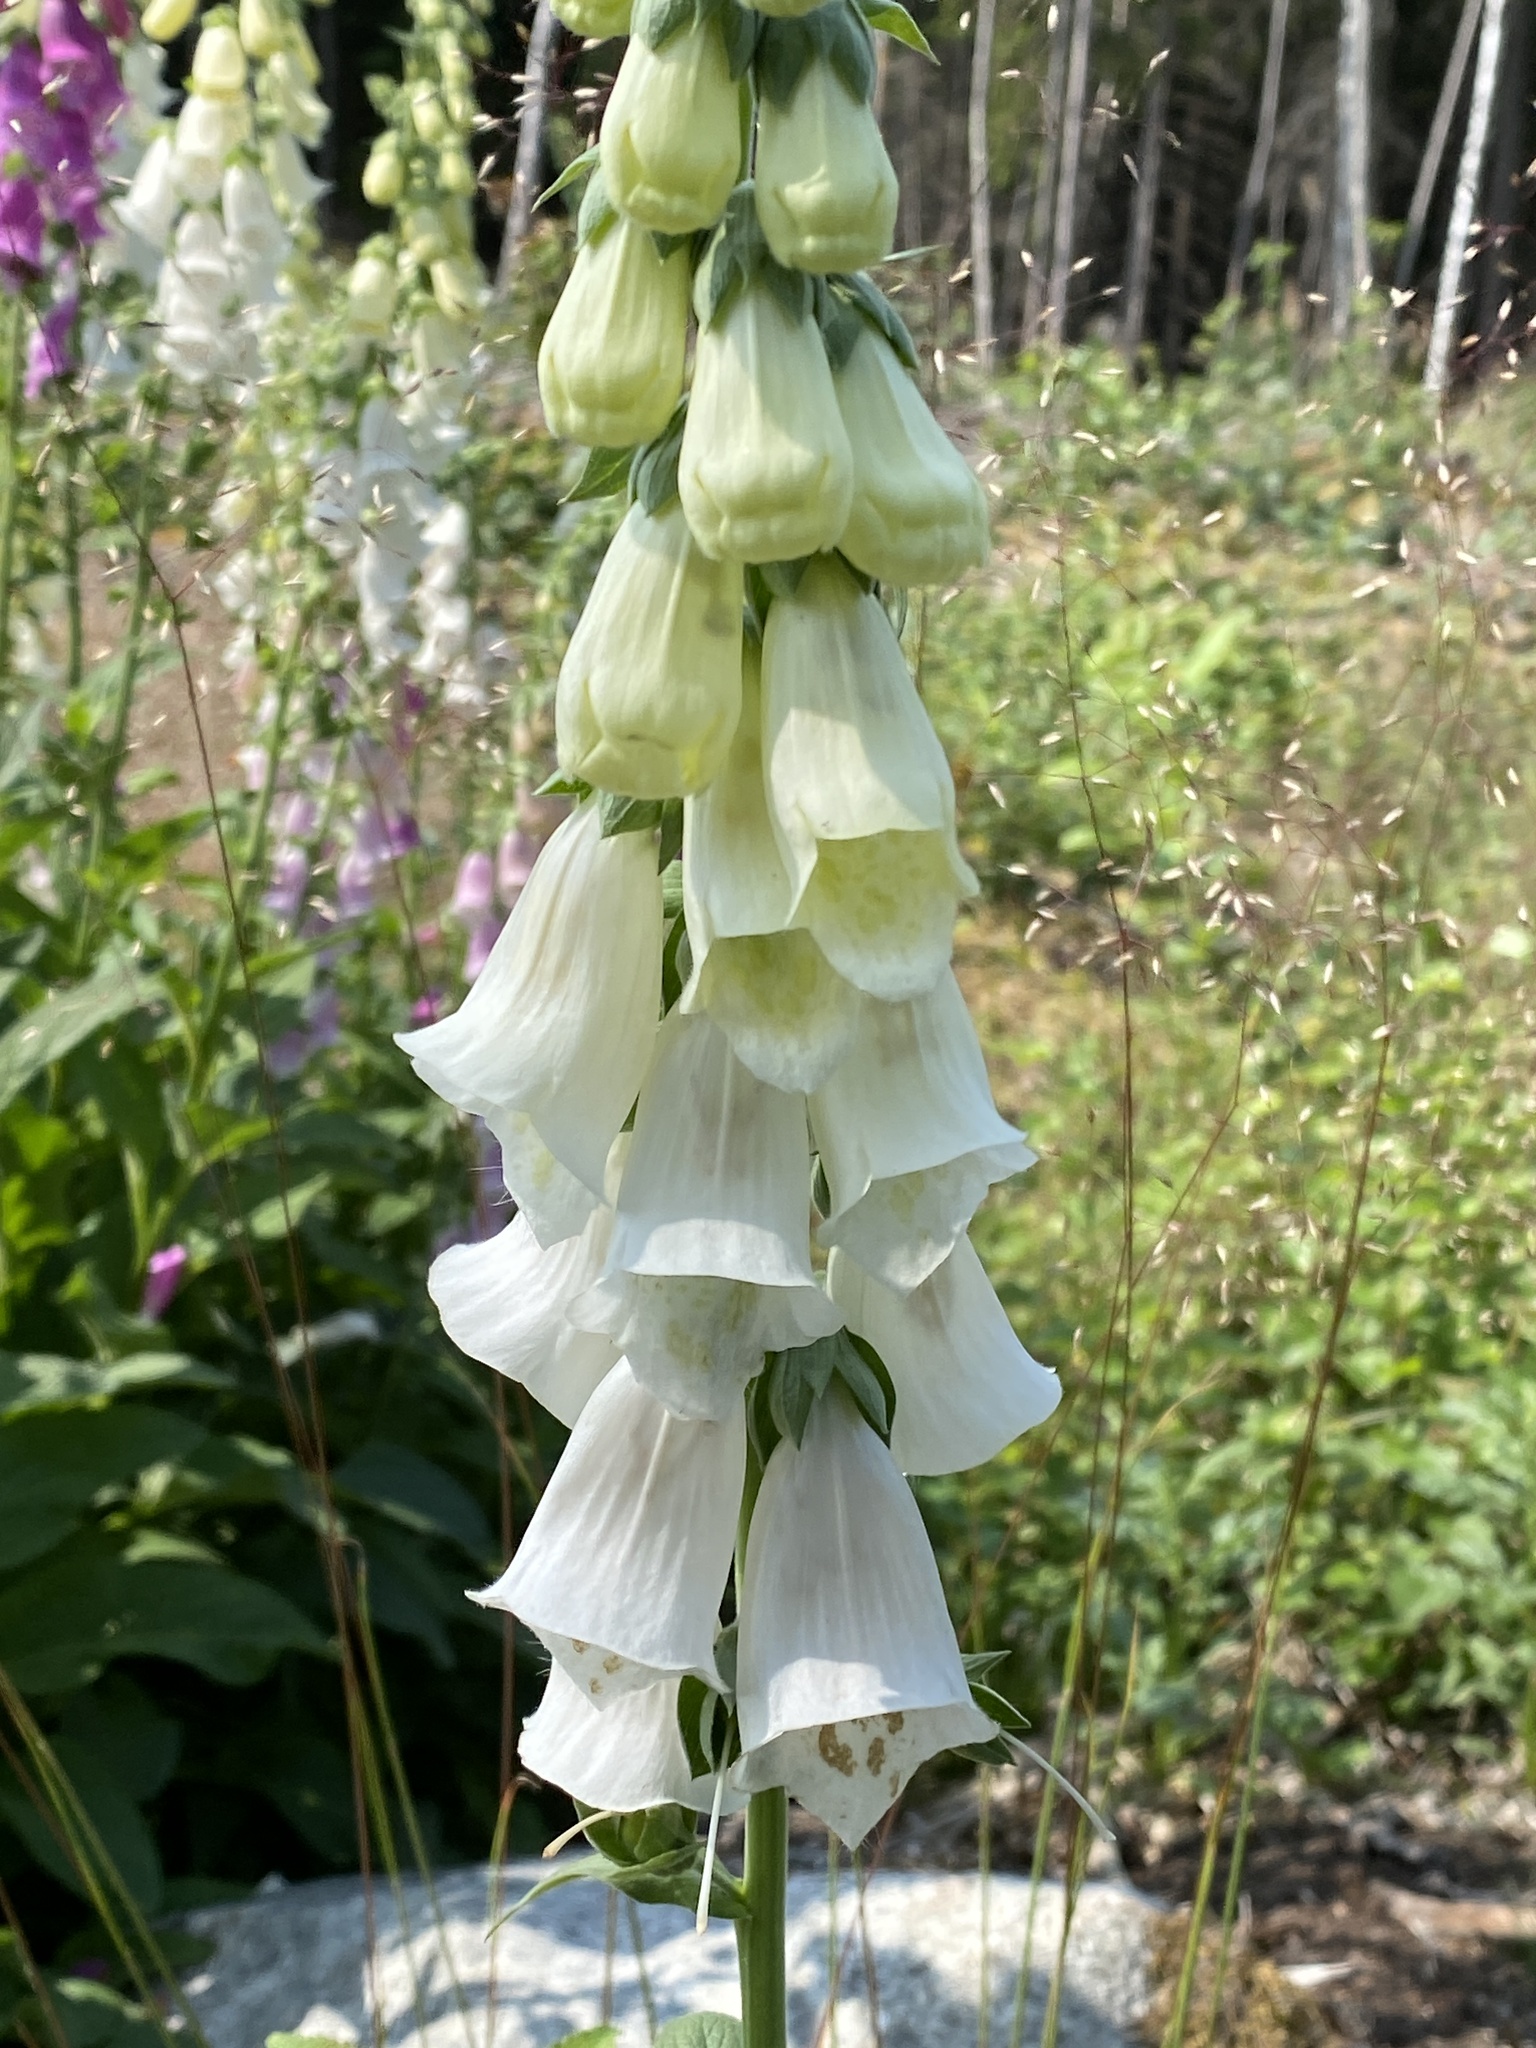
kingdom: Plantae
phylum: Tracheophyta
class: Magnoliopsida
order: Lamiales
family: Plantaginaceae
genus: Digitalis
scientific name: Digitalis purpurea
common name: Foxglove
